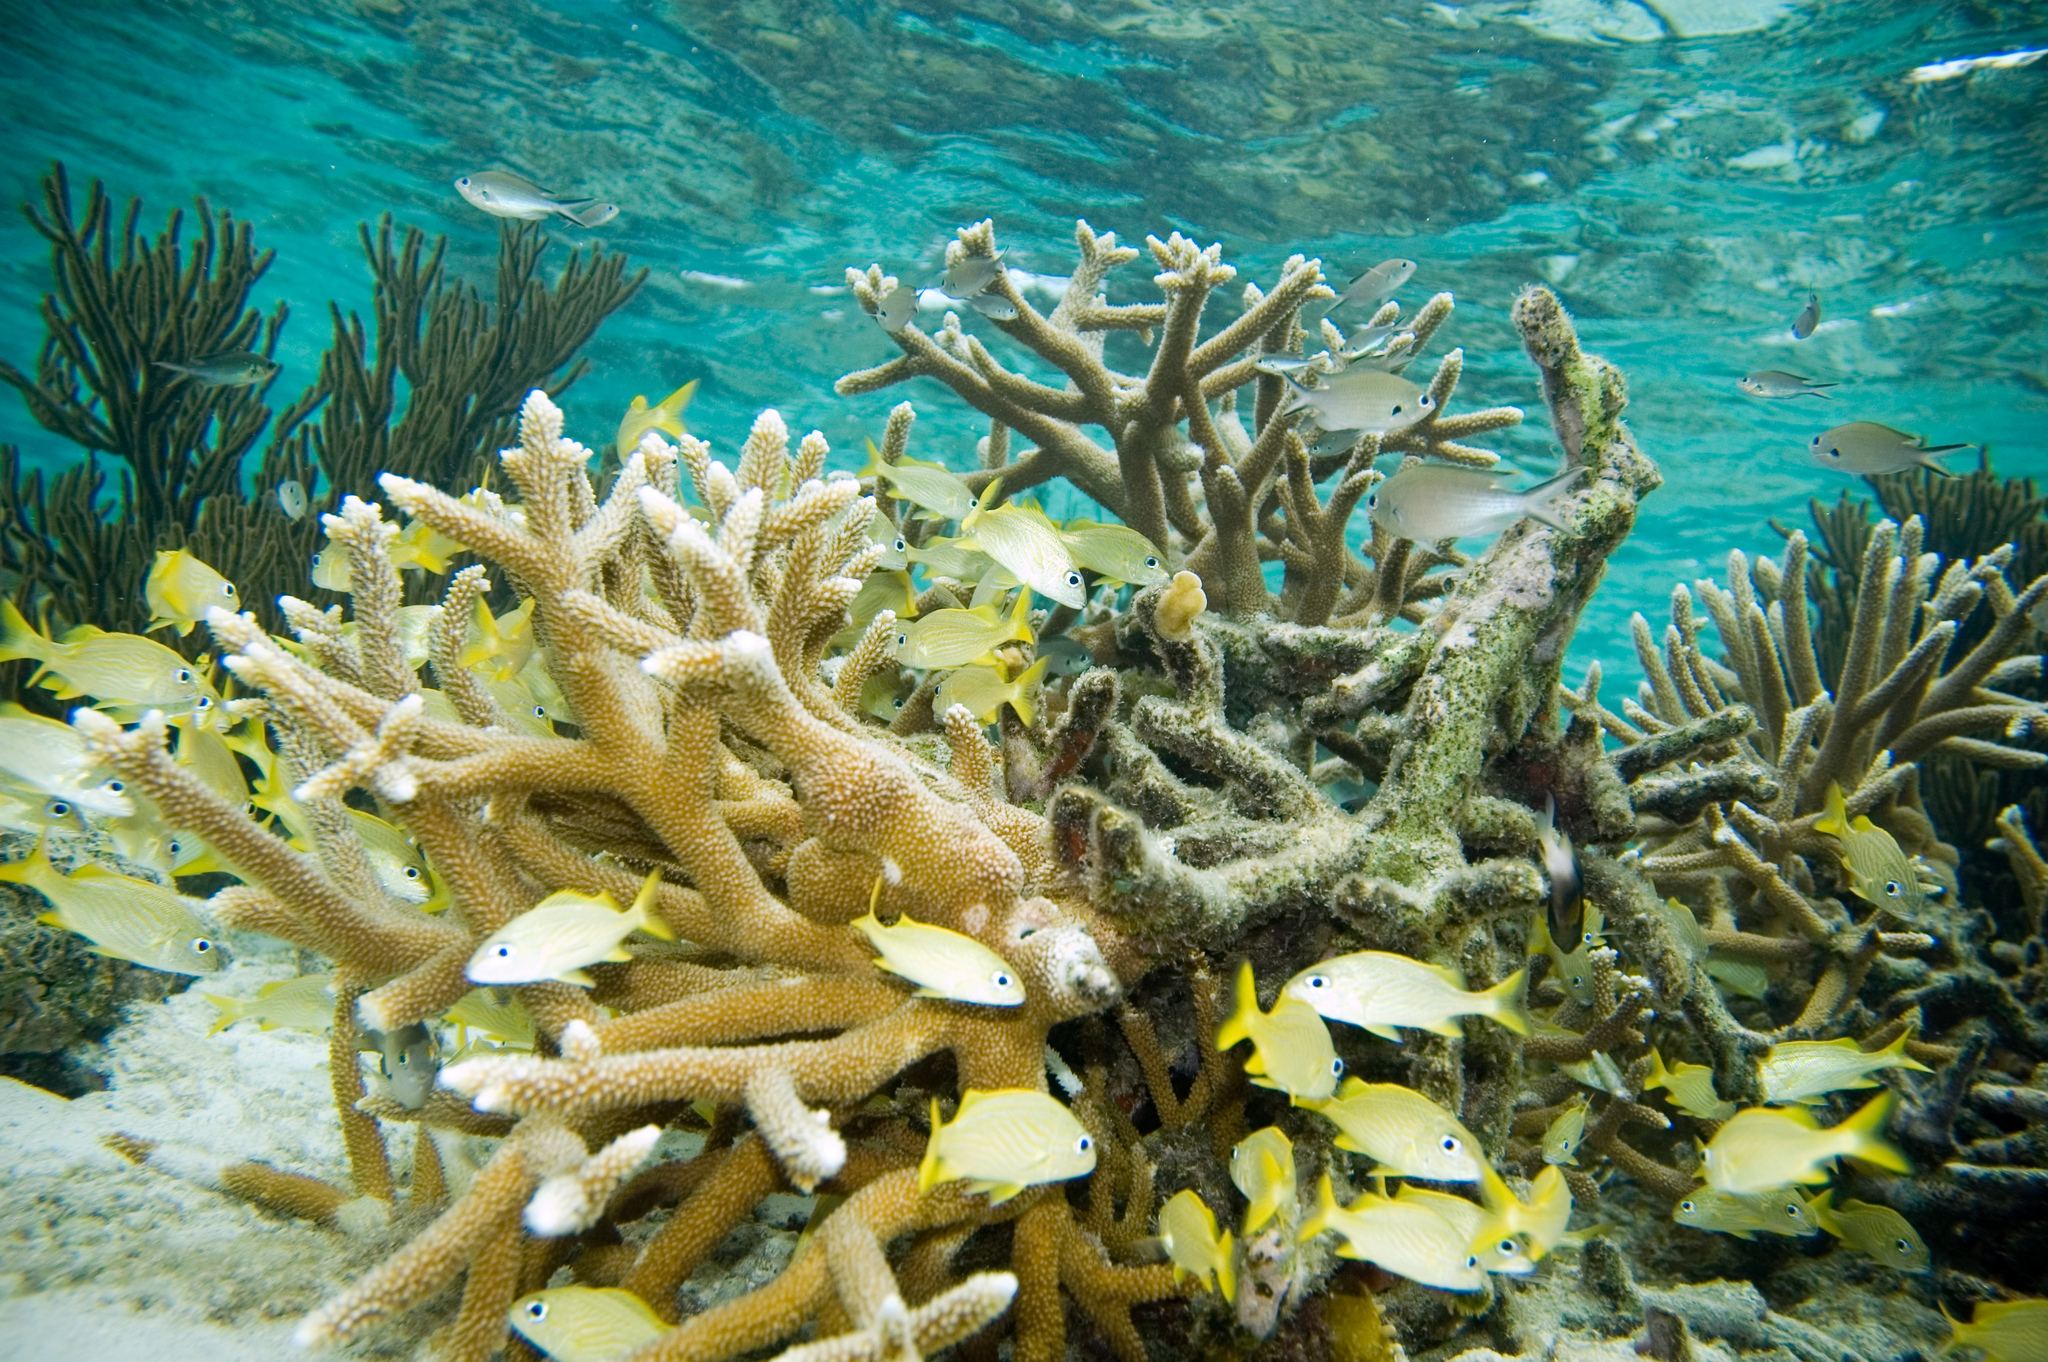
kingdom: Animalia
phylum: Chordata
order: Perciformes
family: Haemulidae
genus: Haemulon
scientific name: Haemulon flavolineatum
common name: French grunt
